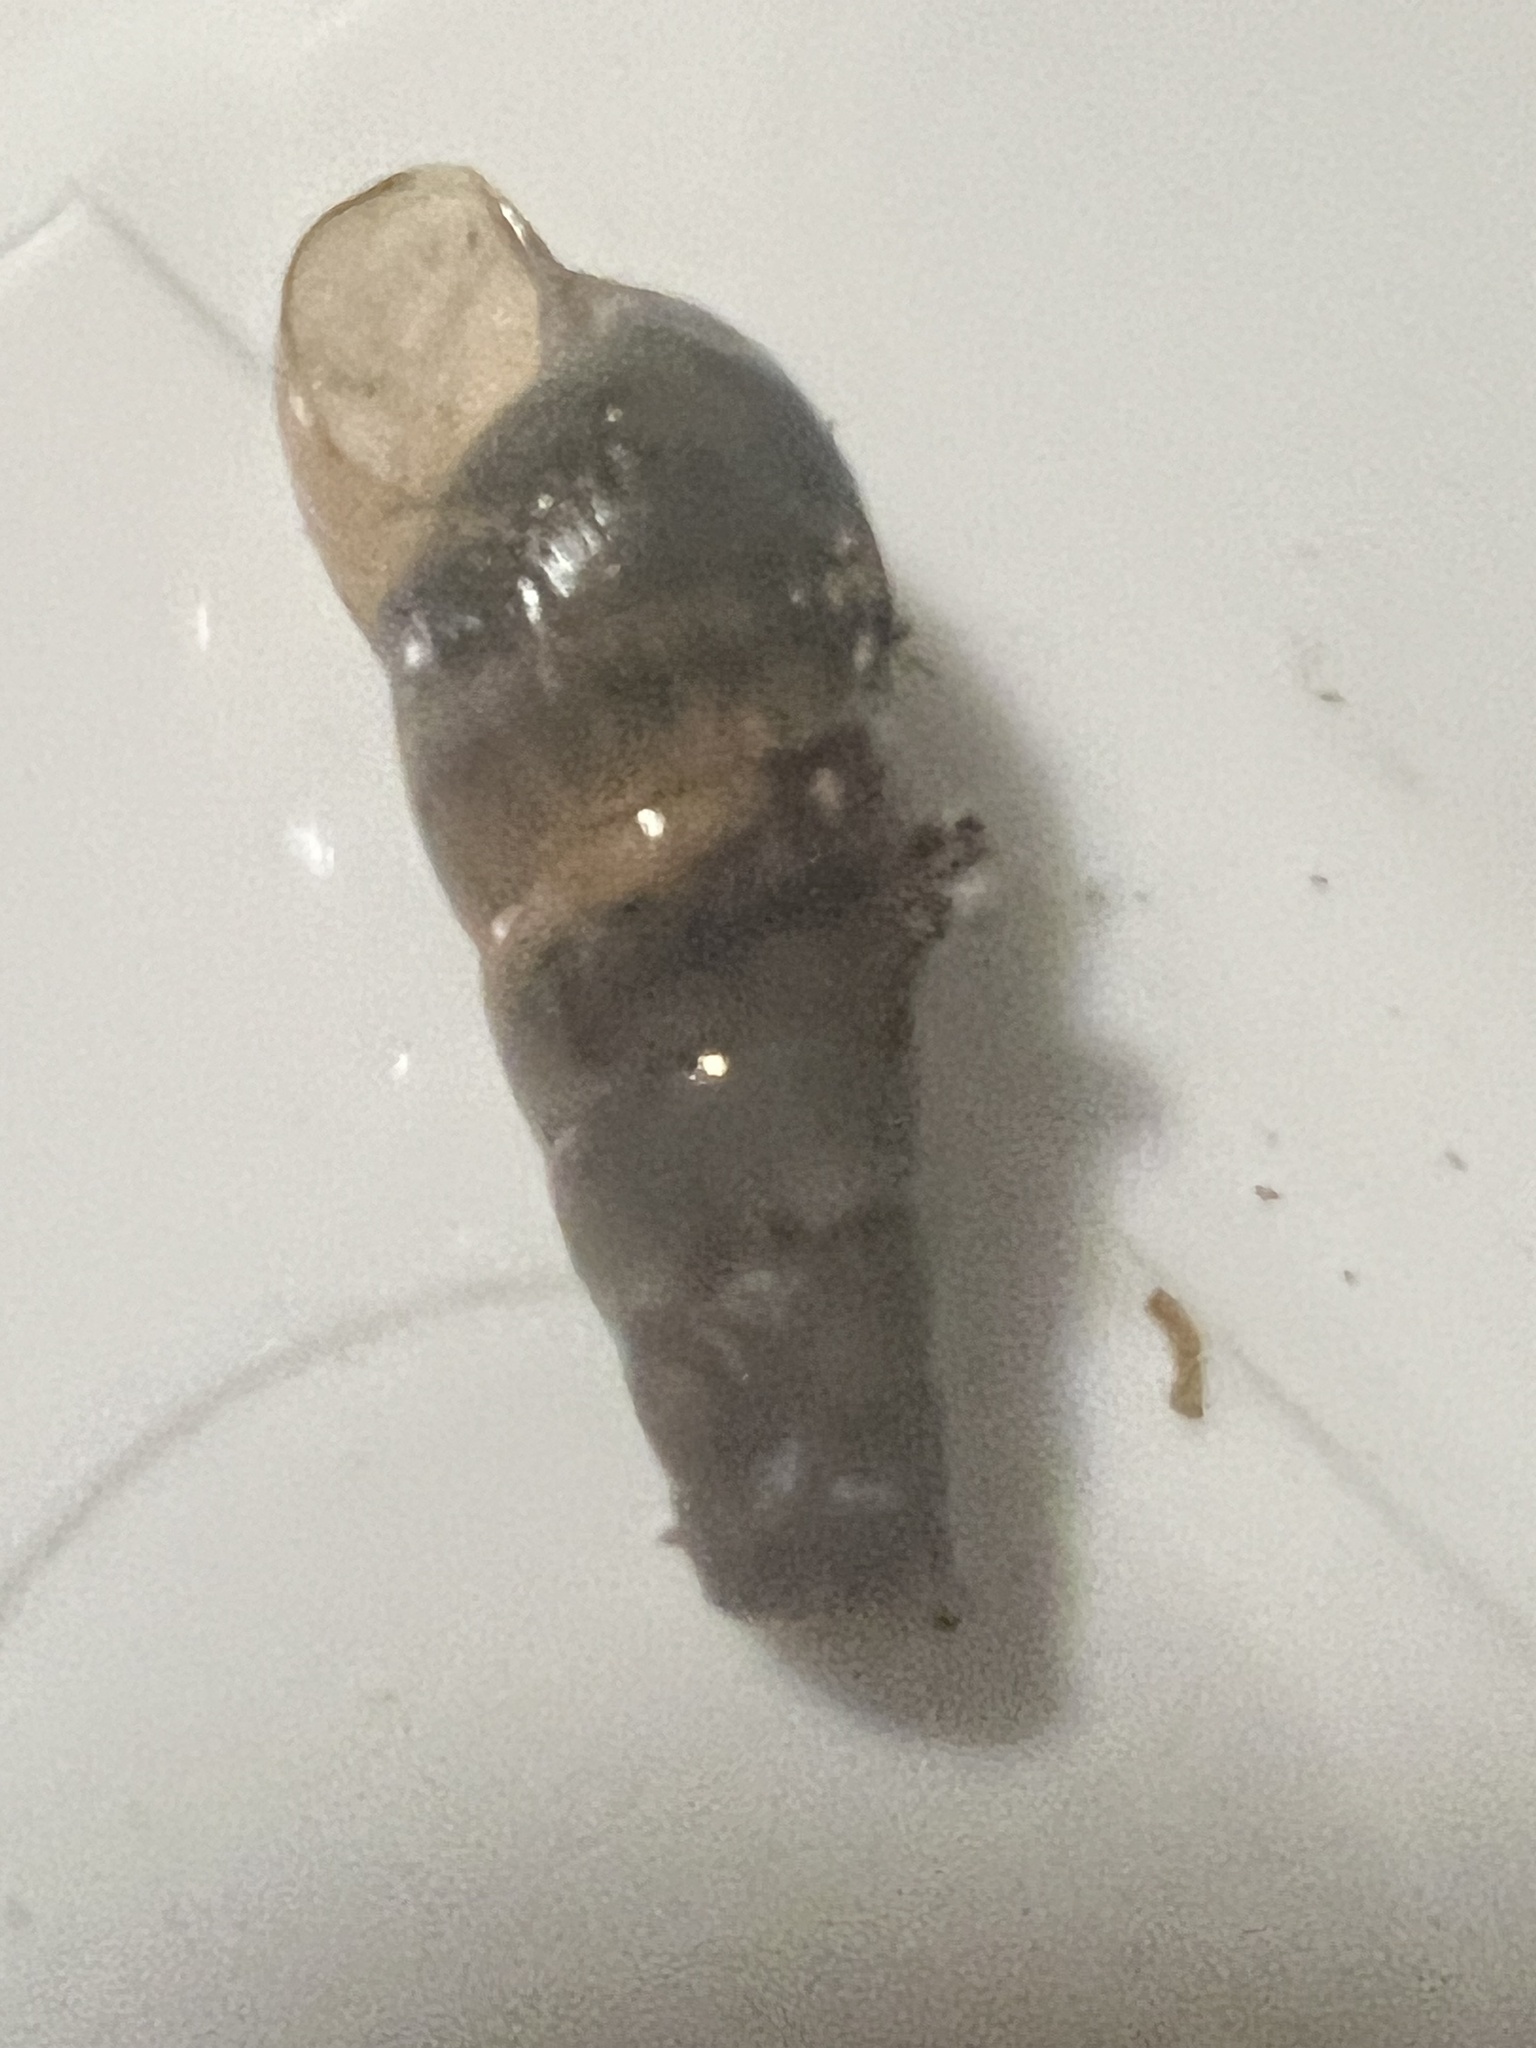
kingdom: Animalia
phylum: Mollusca
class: Gastropoda
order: Stylommatophora
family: Achatinidae
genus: Rumina
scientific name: Rumina decollata
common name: Decollate snail
